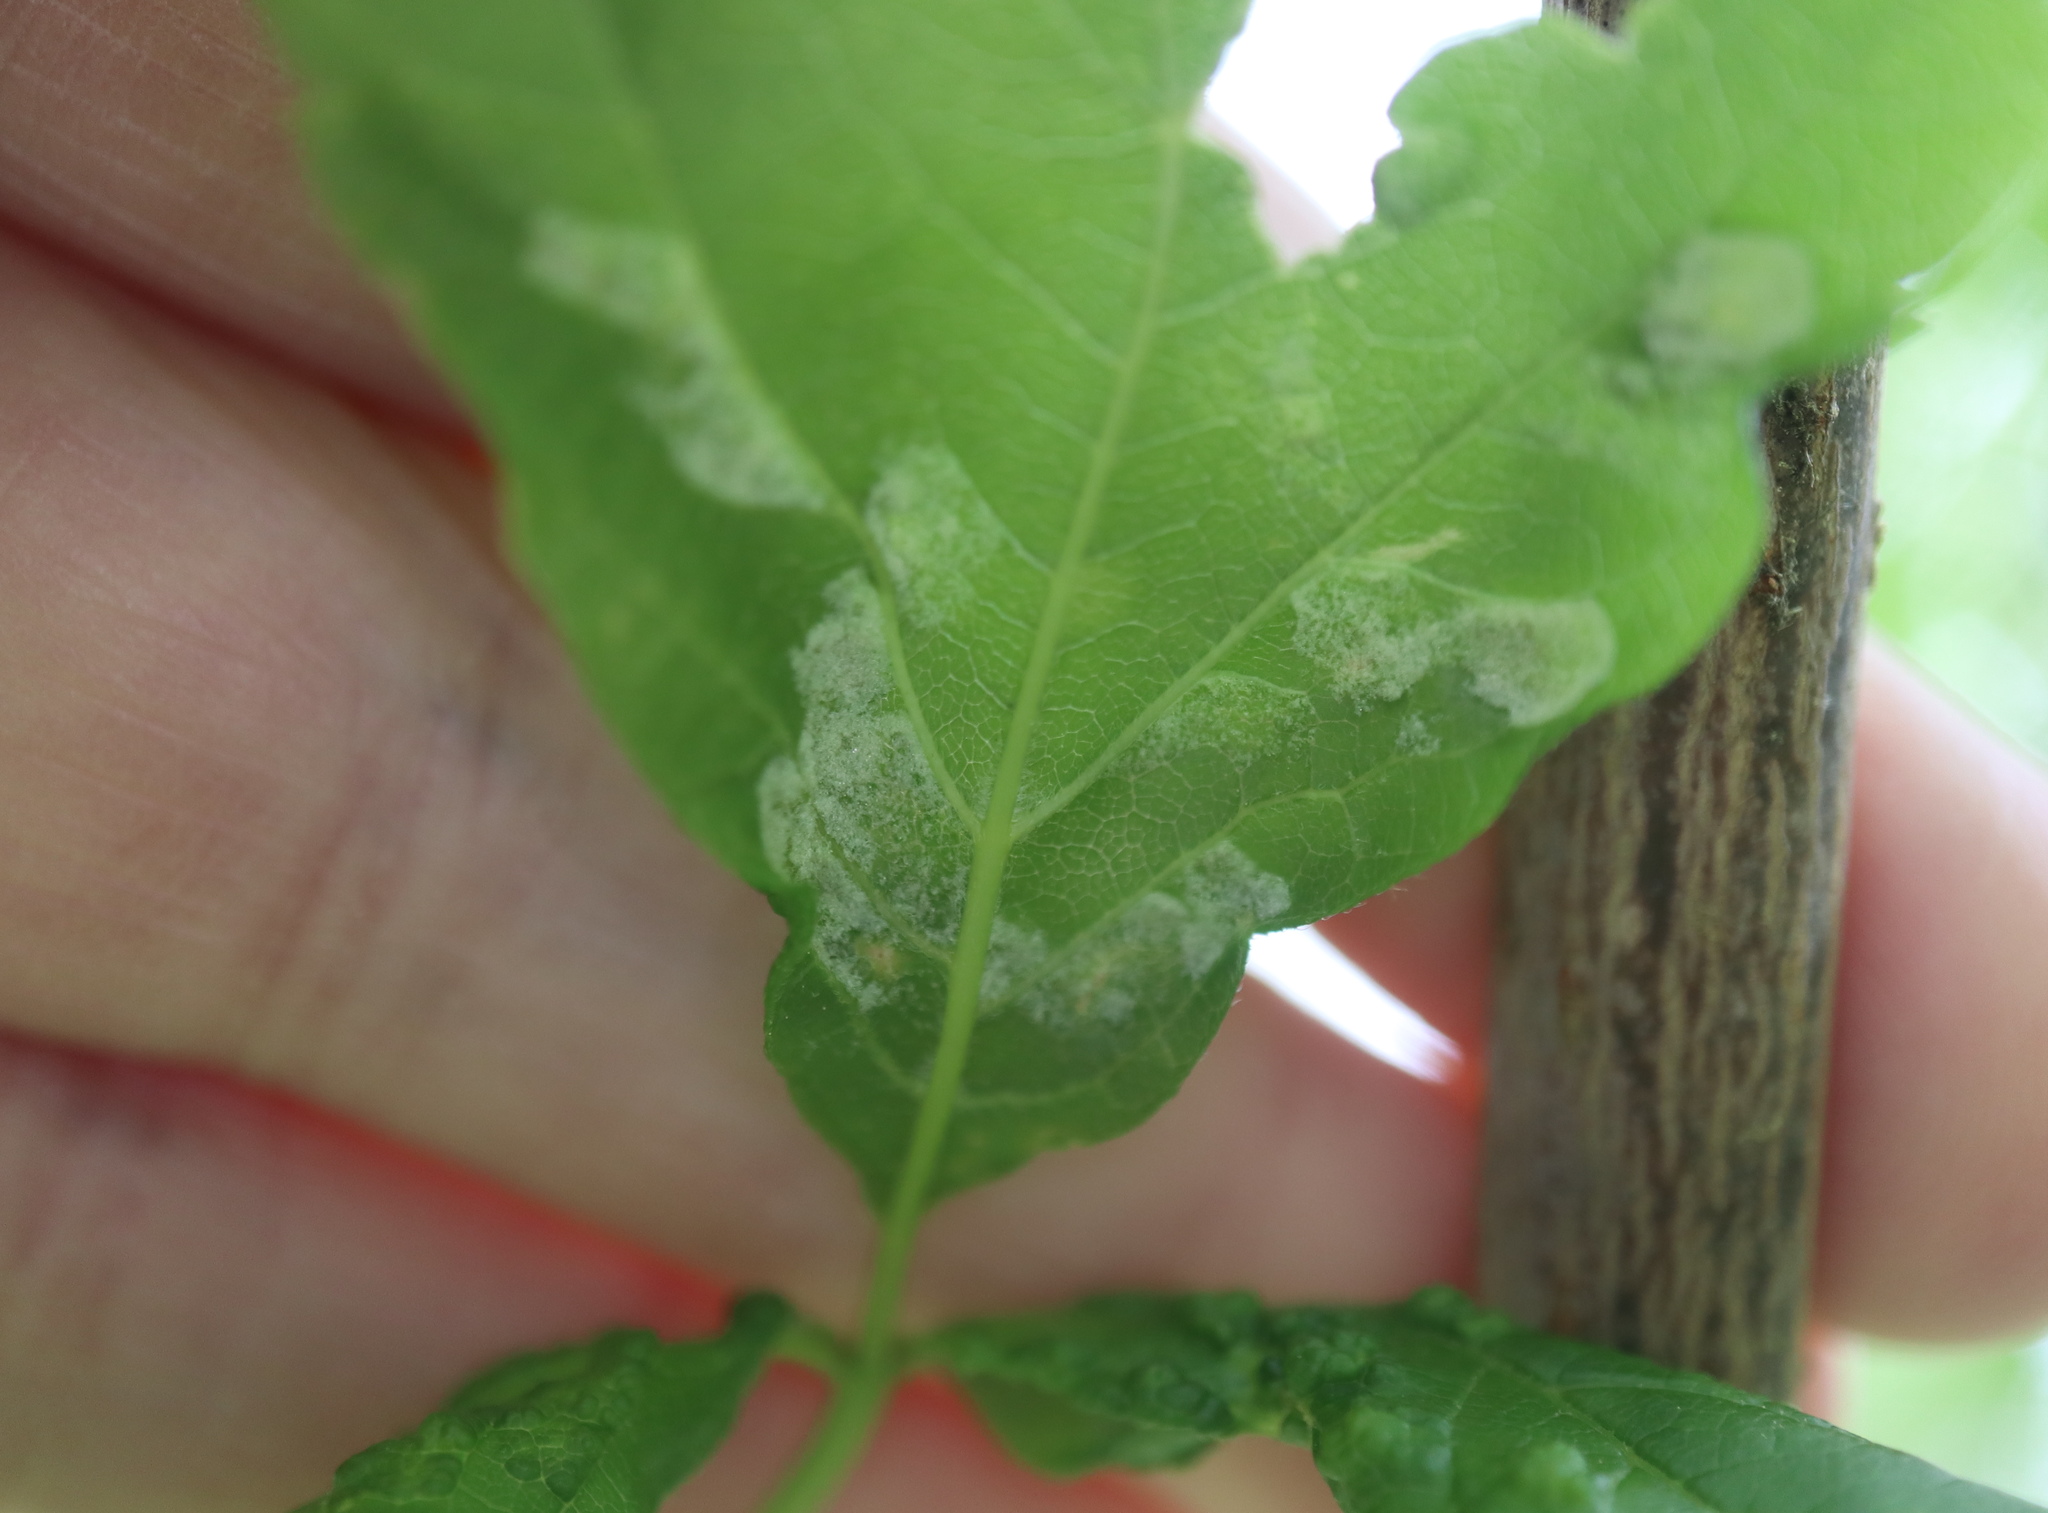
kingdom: Animalia
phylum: Arthropoda
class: Arachnida
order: Trombidiformes
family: Eriophyidae
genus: Aceria
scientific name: Aceria
